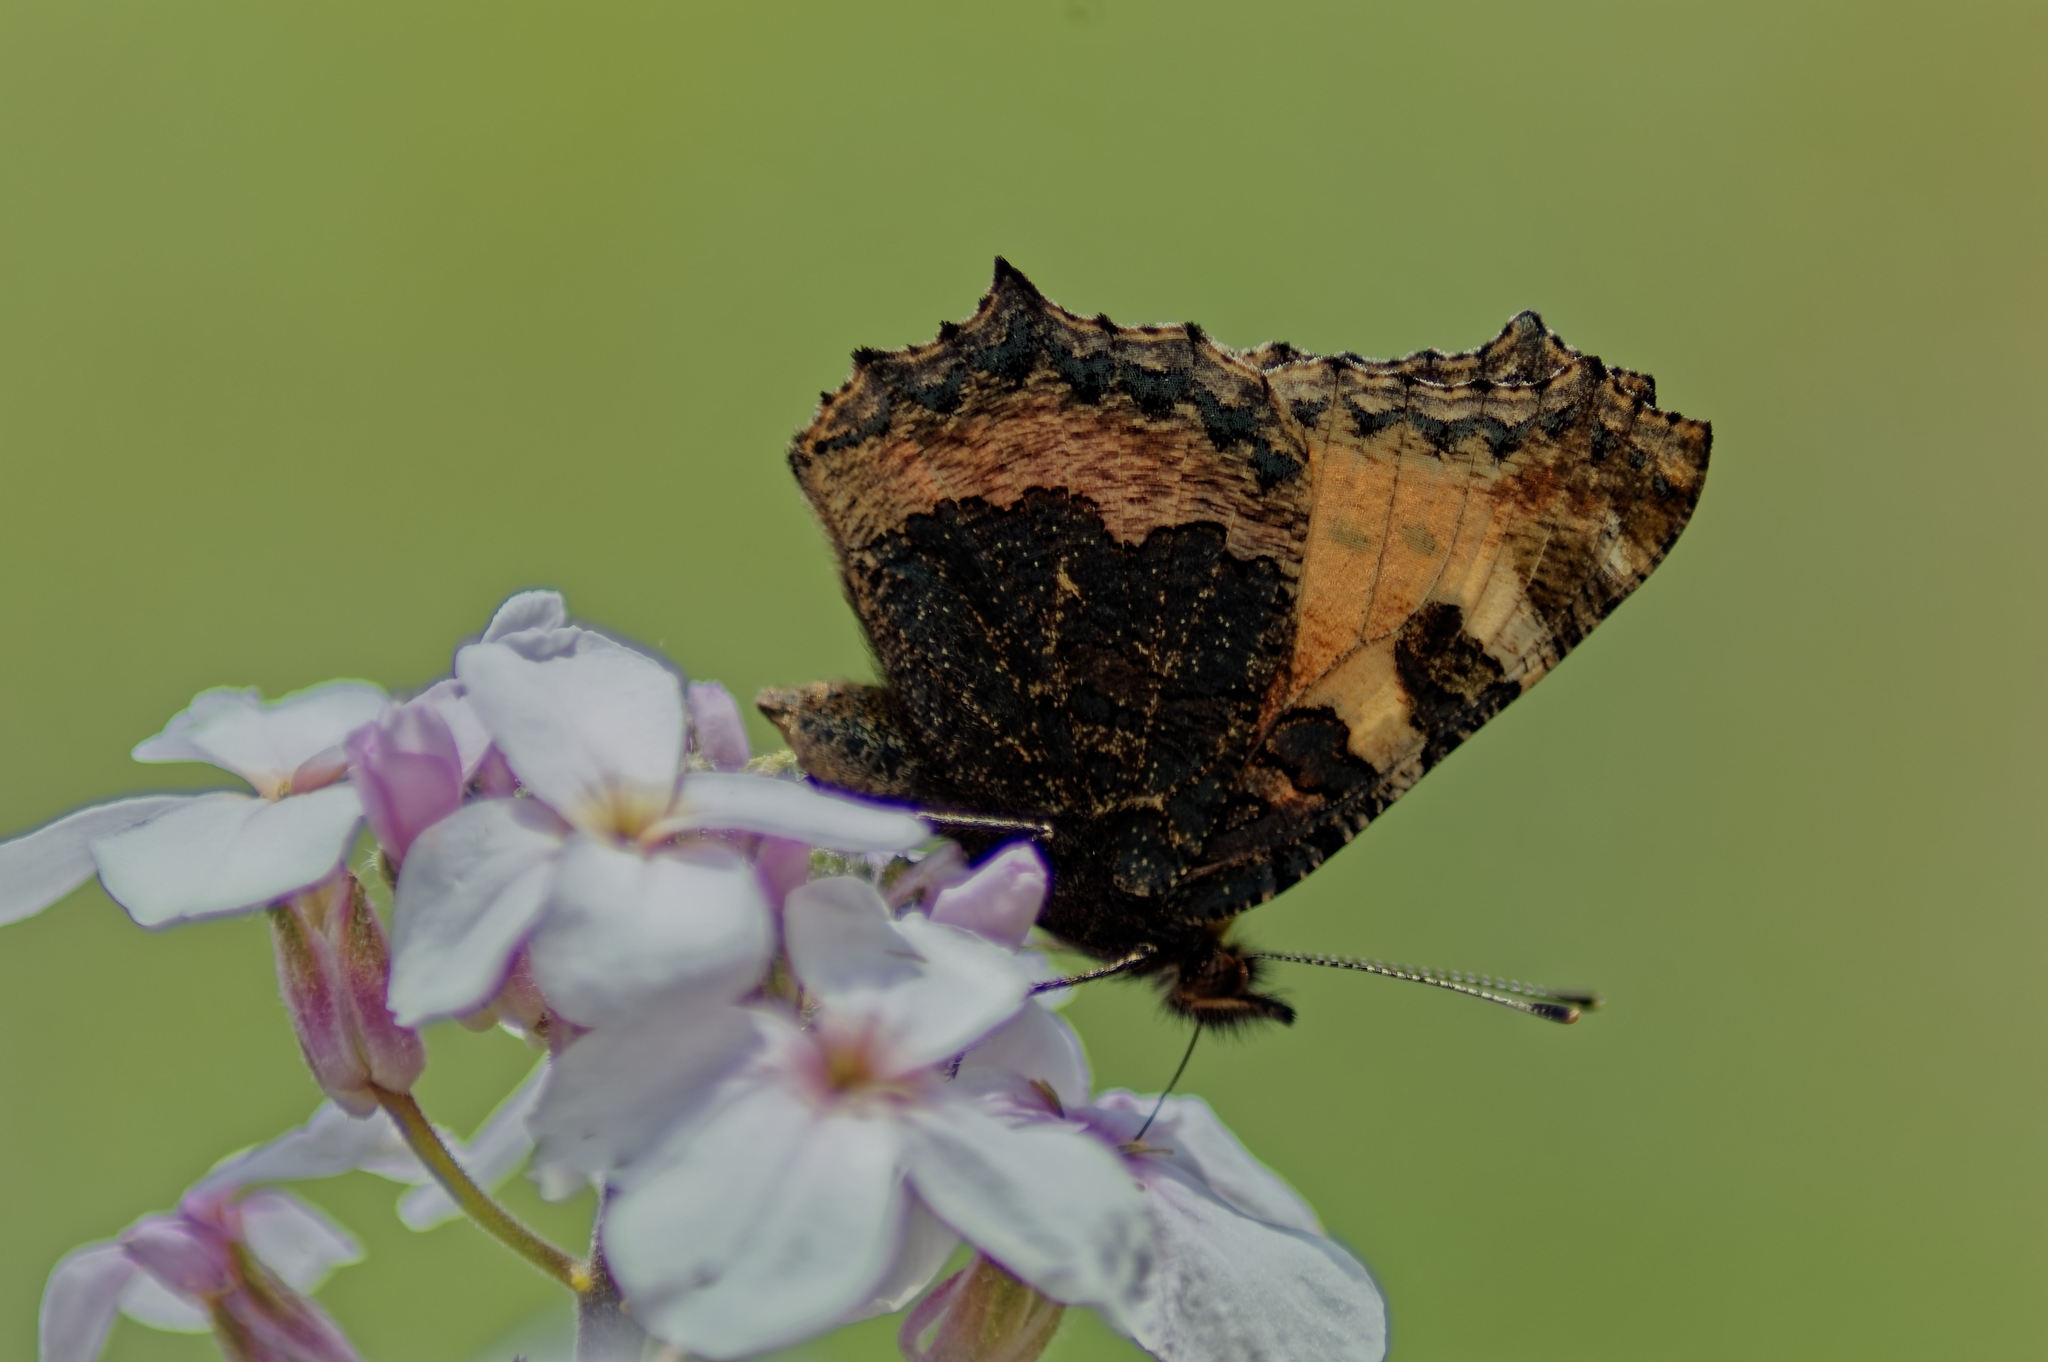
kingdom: Animalia
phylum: Arthropoda
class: Insecta
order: Lepidoptera
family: Nymphalidae
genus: Aglais
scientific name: Aglais urticae
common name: Small tortoiseshell
